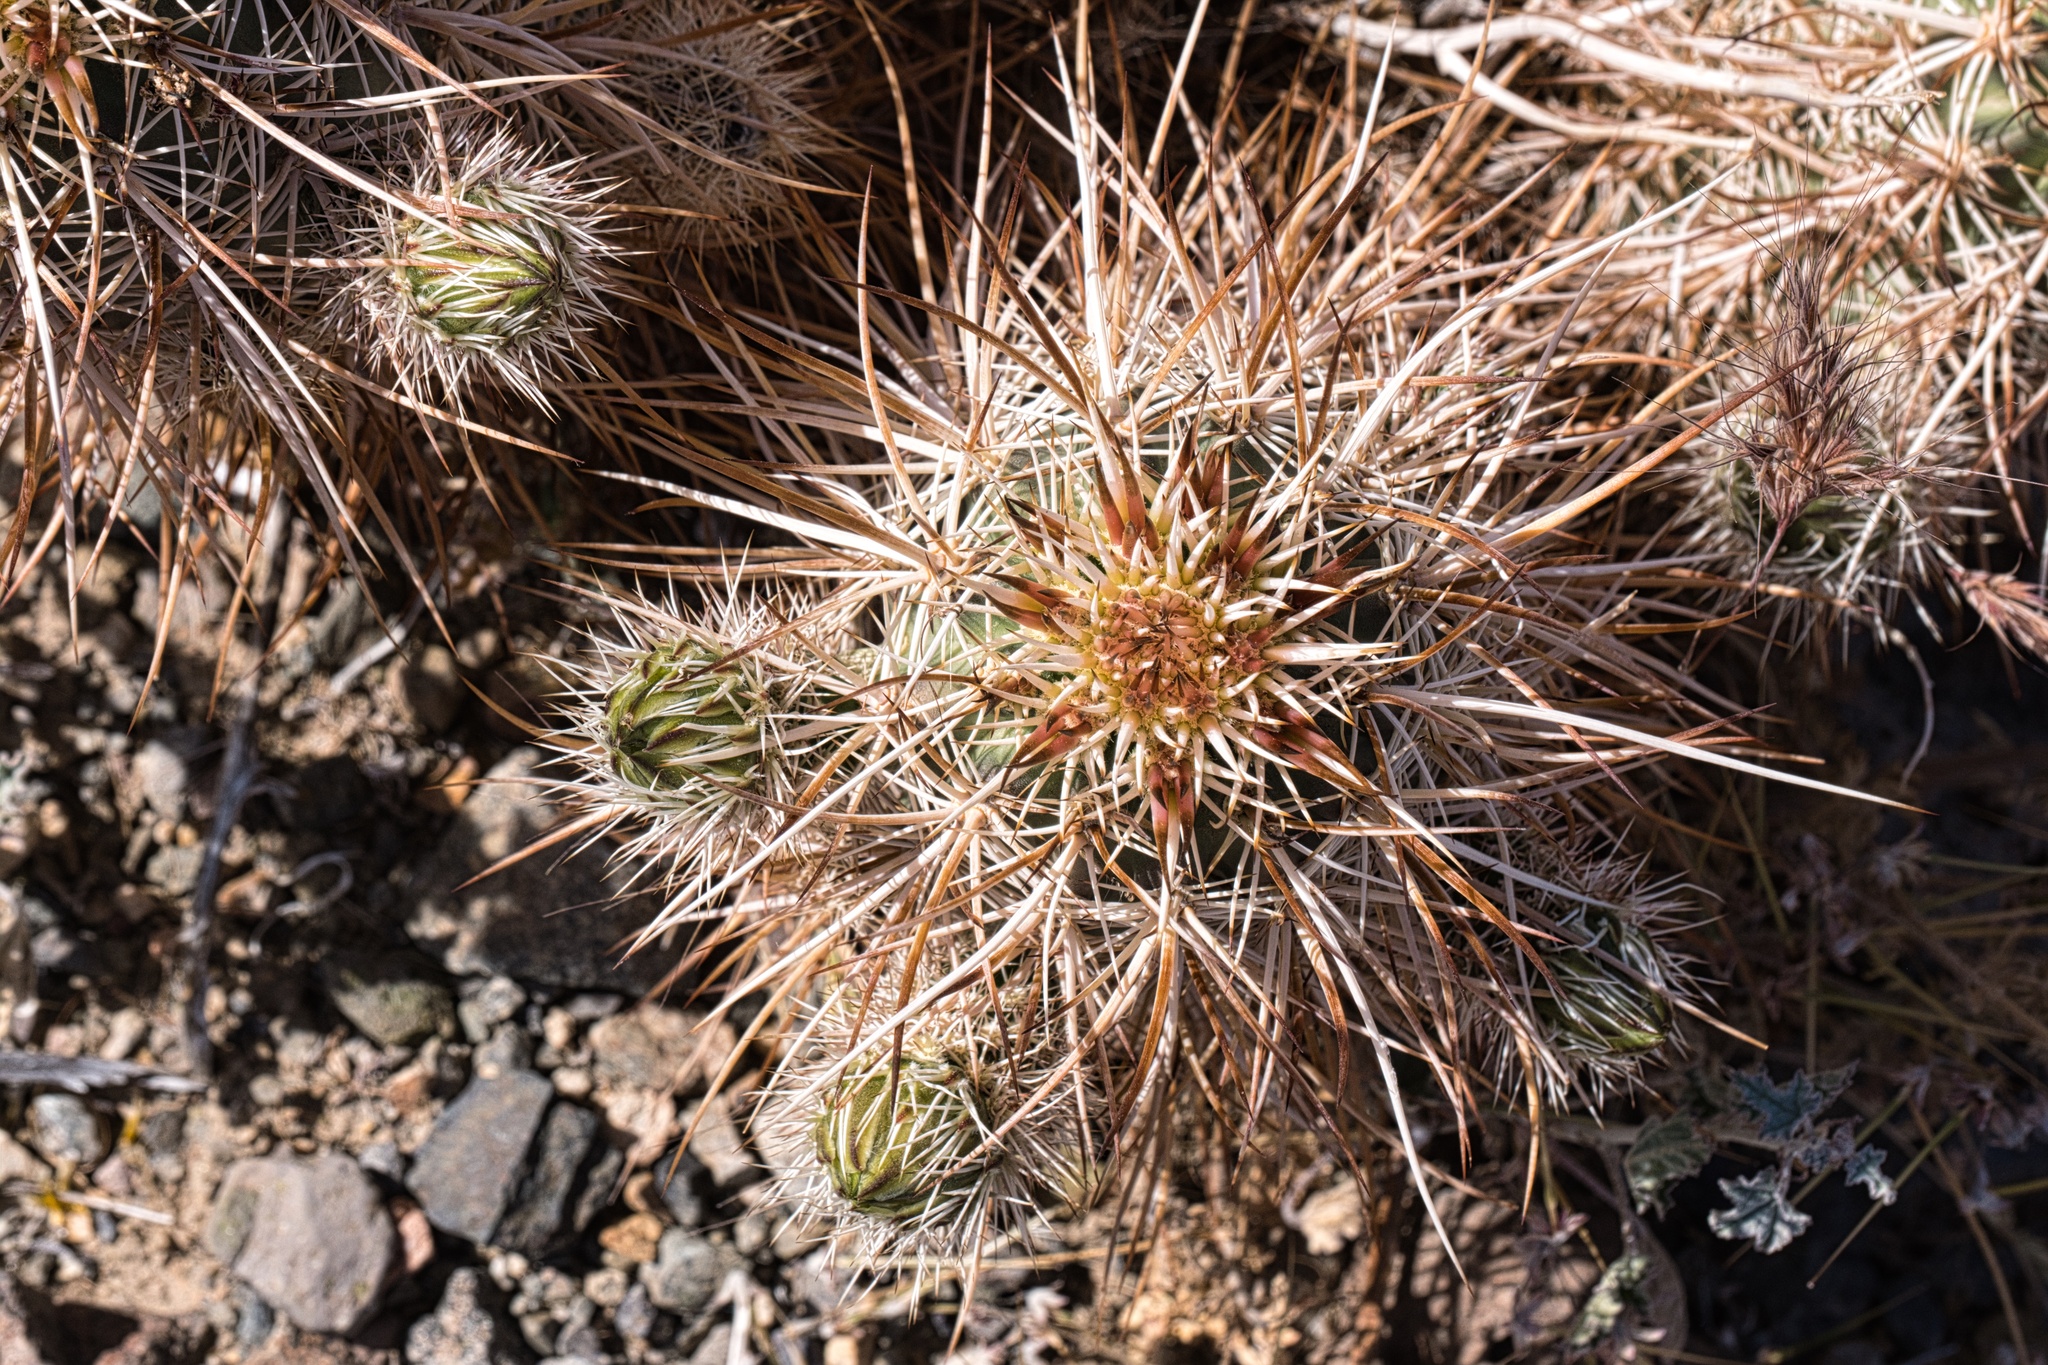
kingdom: Plantae
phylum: Tracheophyta
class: Magnoliopsida
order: Caryophyllales
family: Cactaceae
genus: Echinocereus
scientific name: Echinocereus engelmannii
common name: Engelmann's hedgehog cactus
